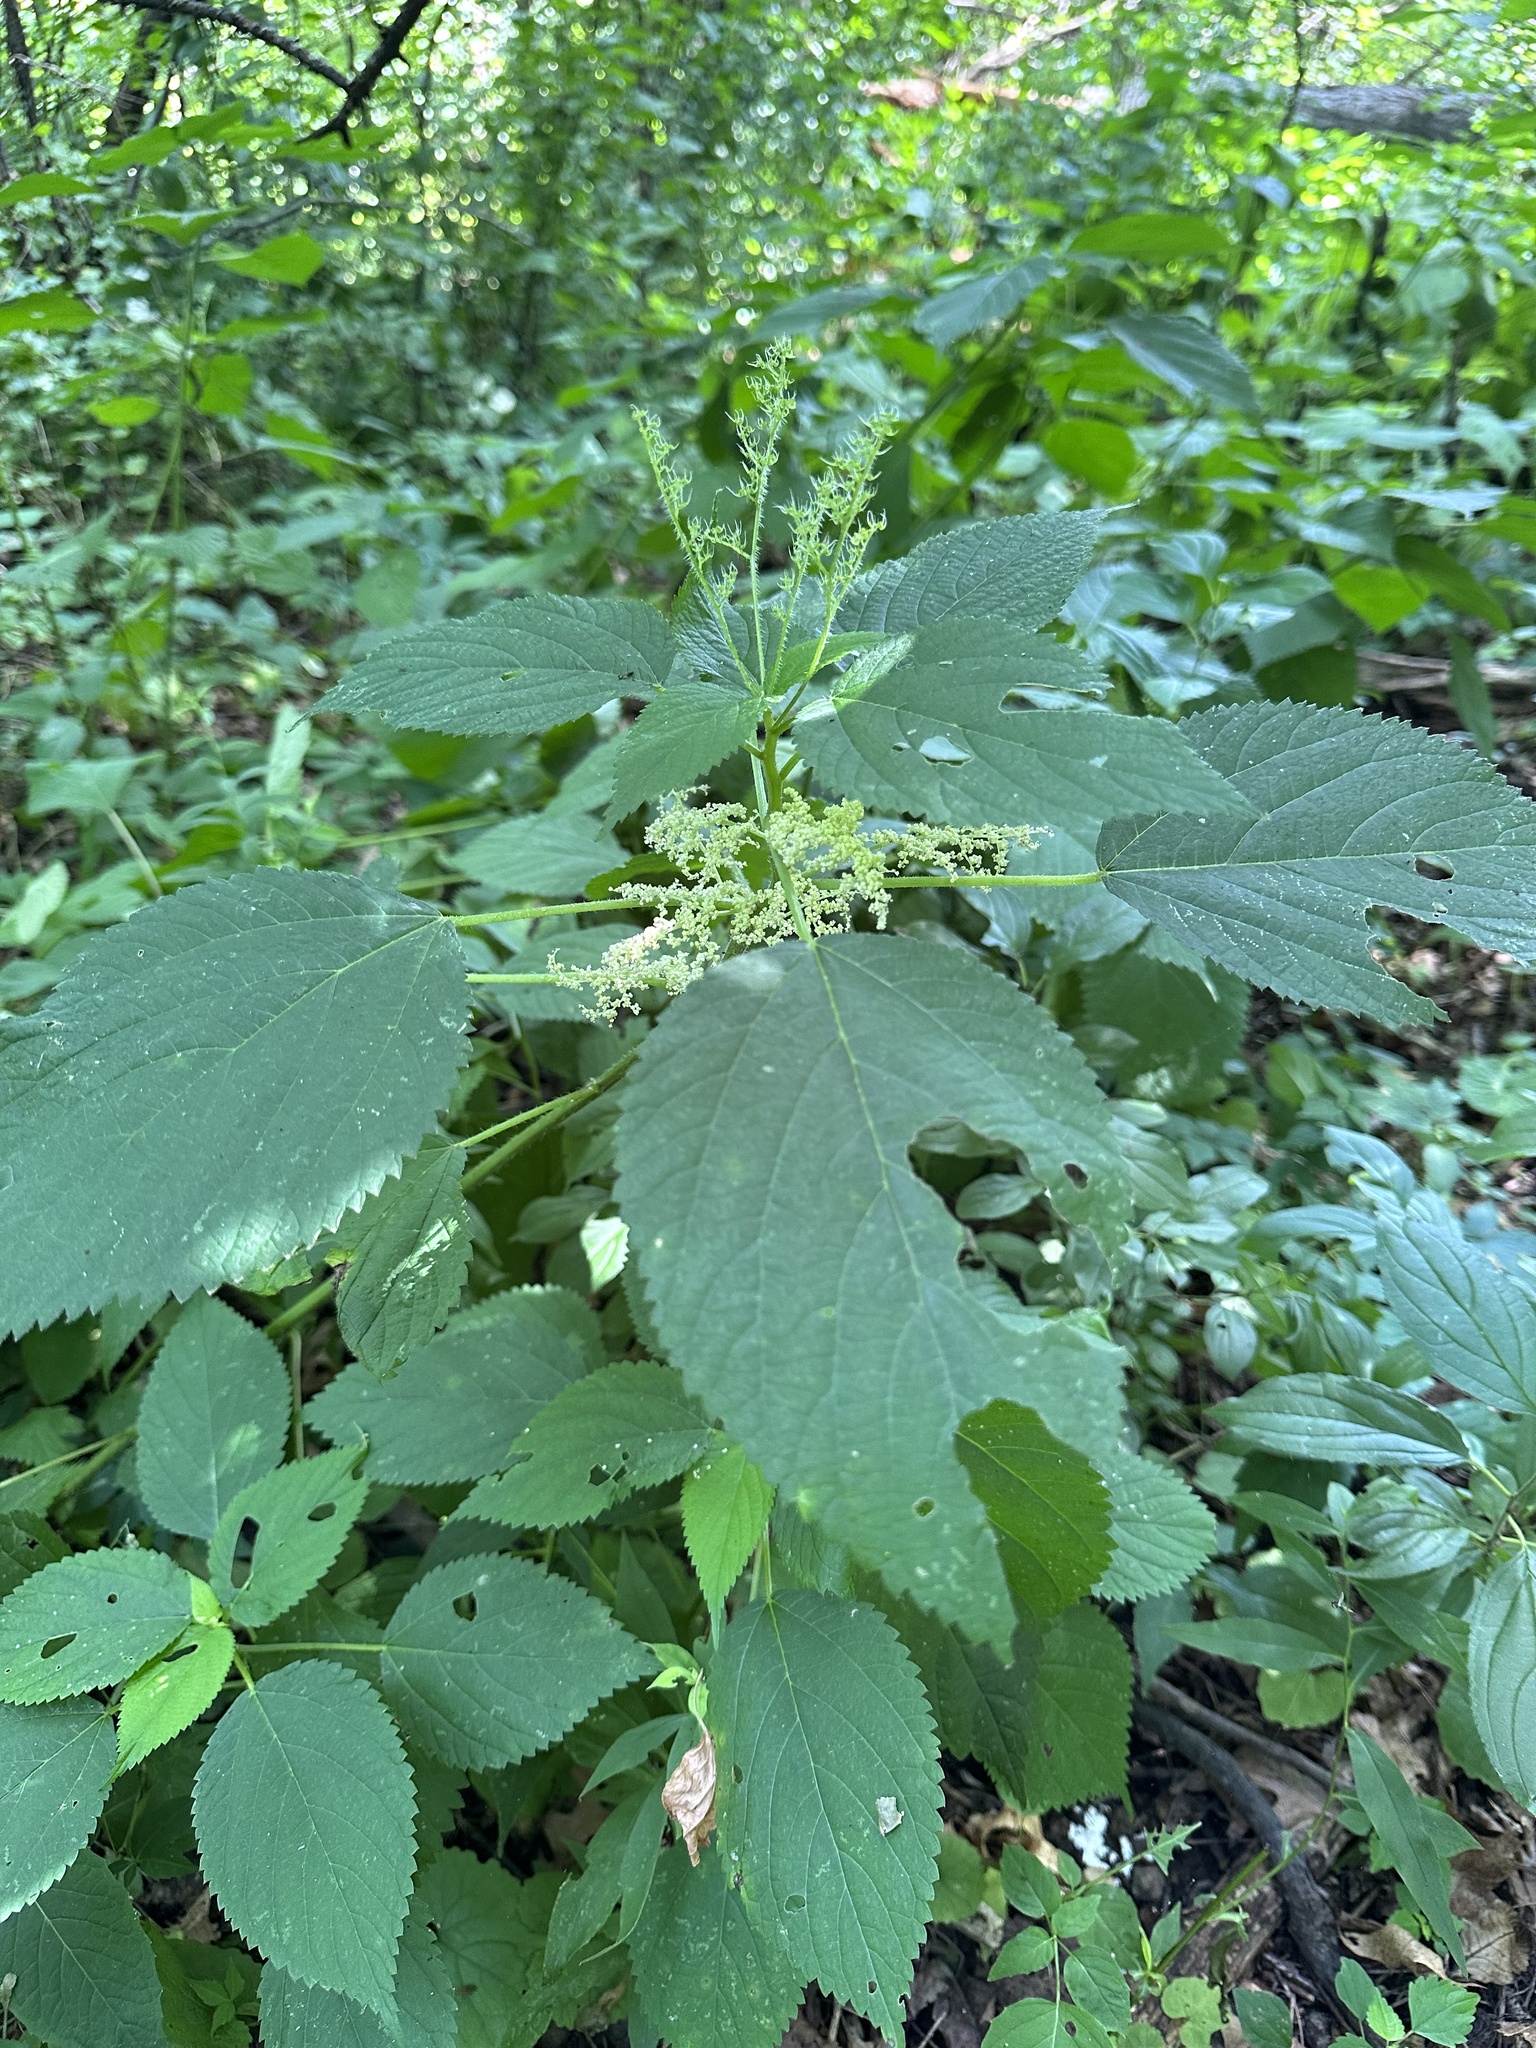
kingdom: Plantae
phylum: Tracheophyta
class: Magnoliopsida
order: Rosales
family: Urticaceae
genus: Laportea
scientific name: Laportea canadensis
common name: Canada nettle
